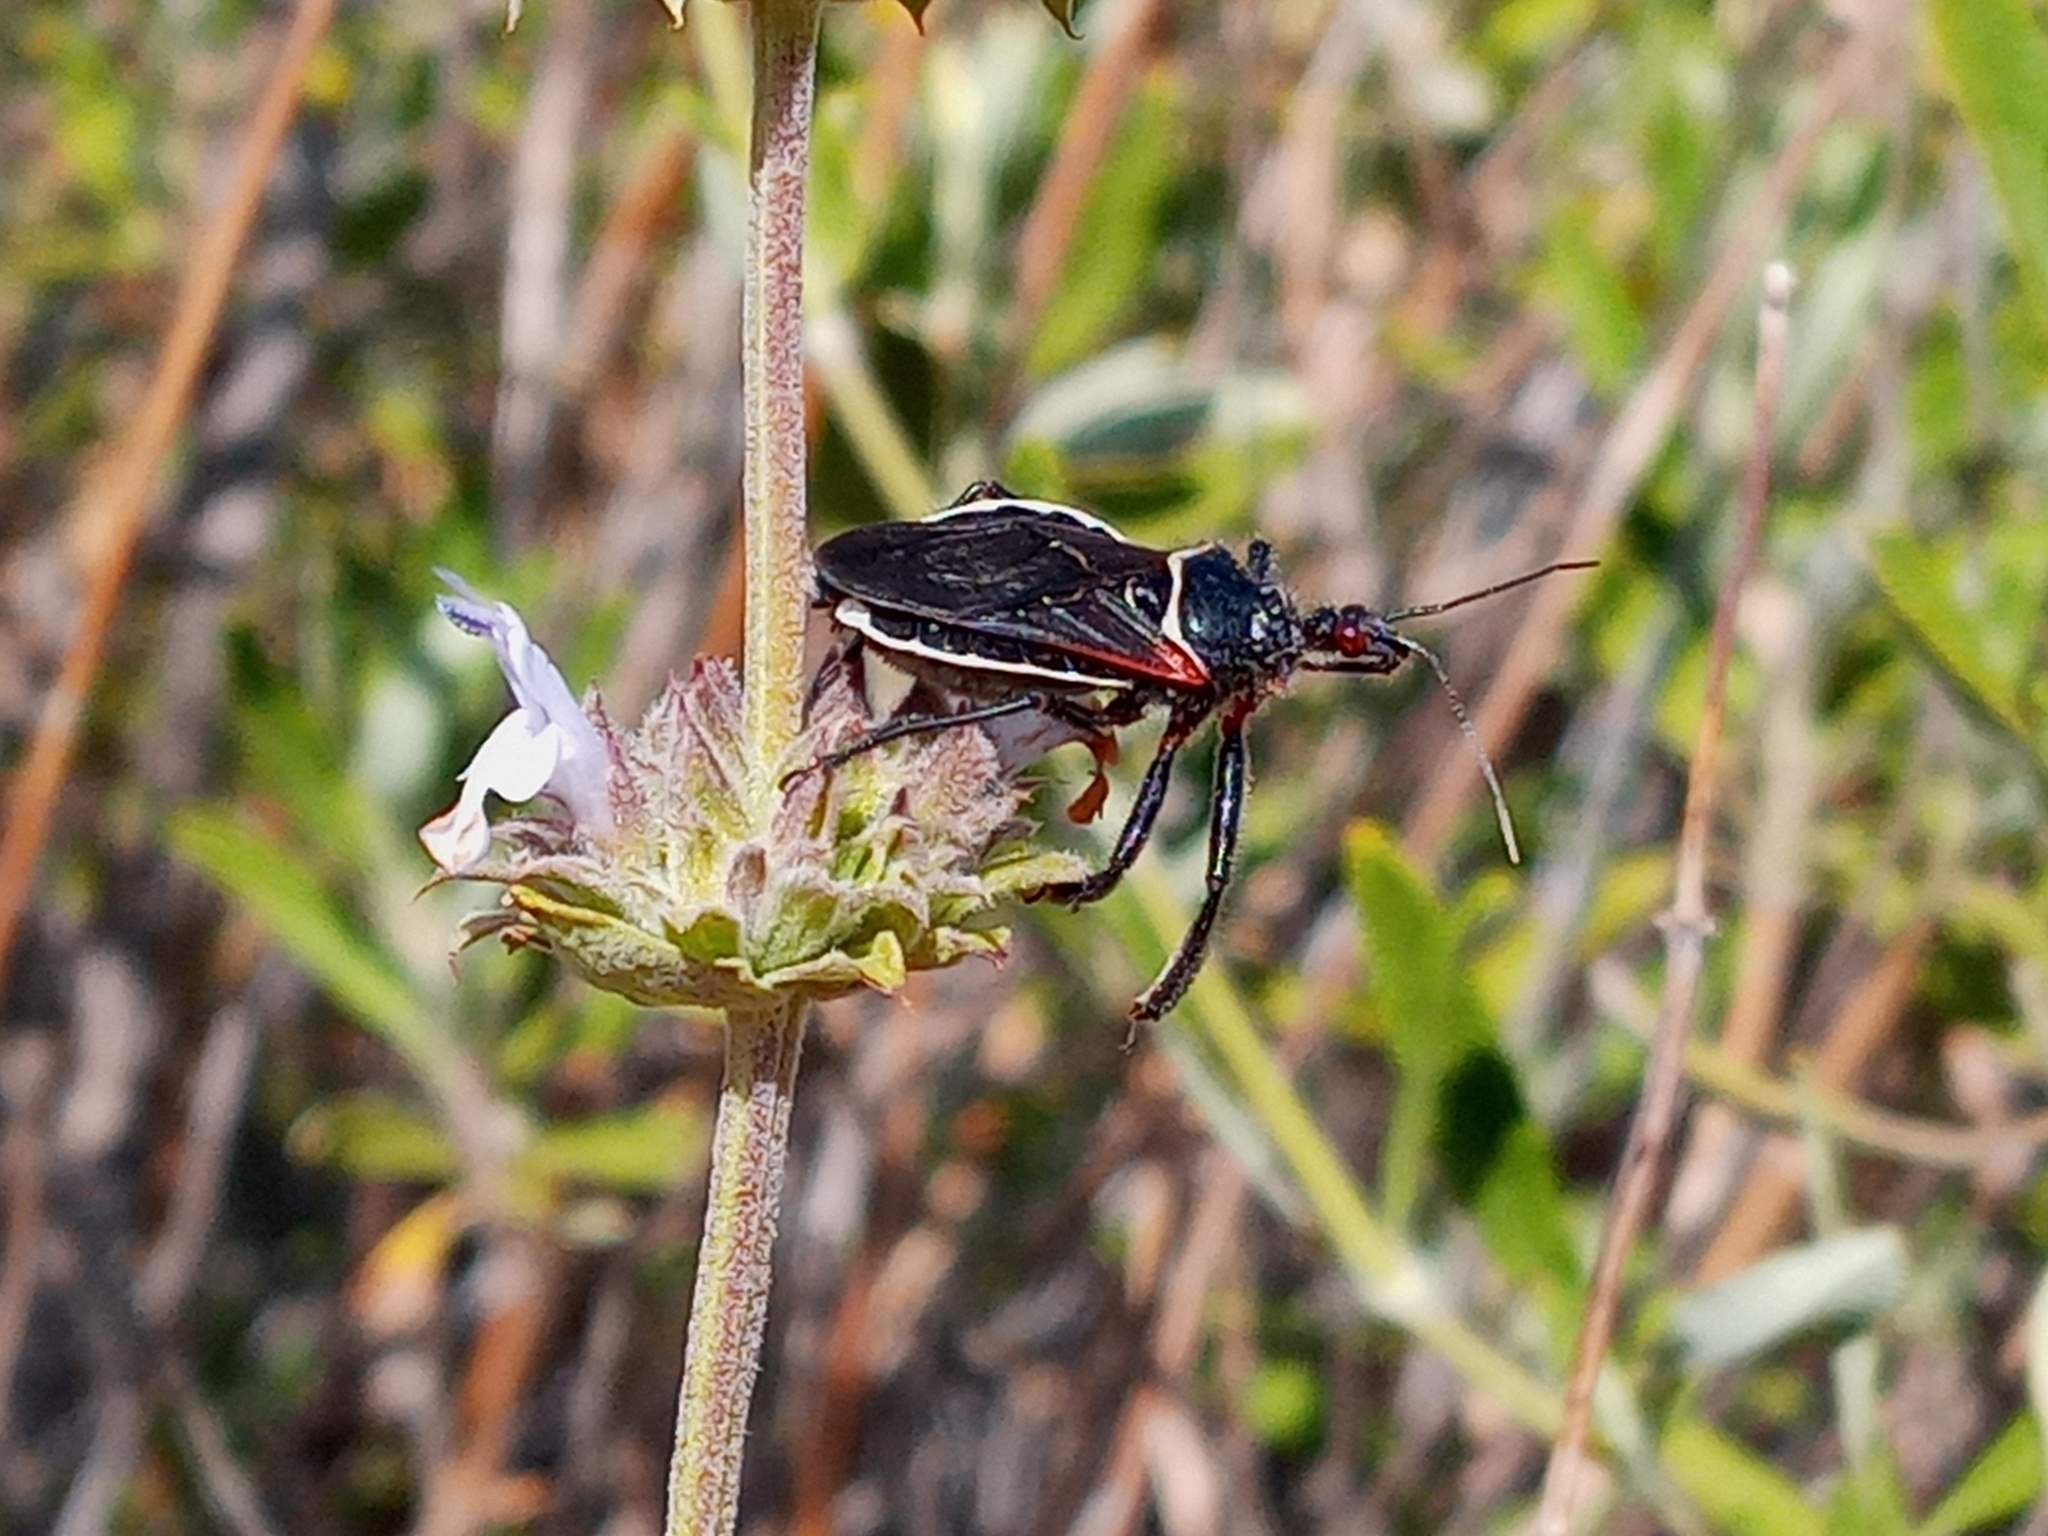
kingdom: Animalia
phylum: Arthropoda
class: Insecta
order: Hemiptera
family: Reduviidae
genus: Apiomerus
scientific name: Apiomerus californicus
